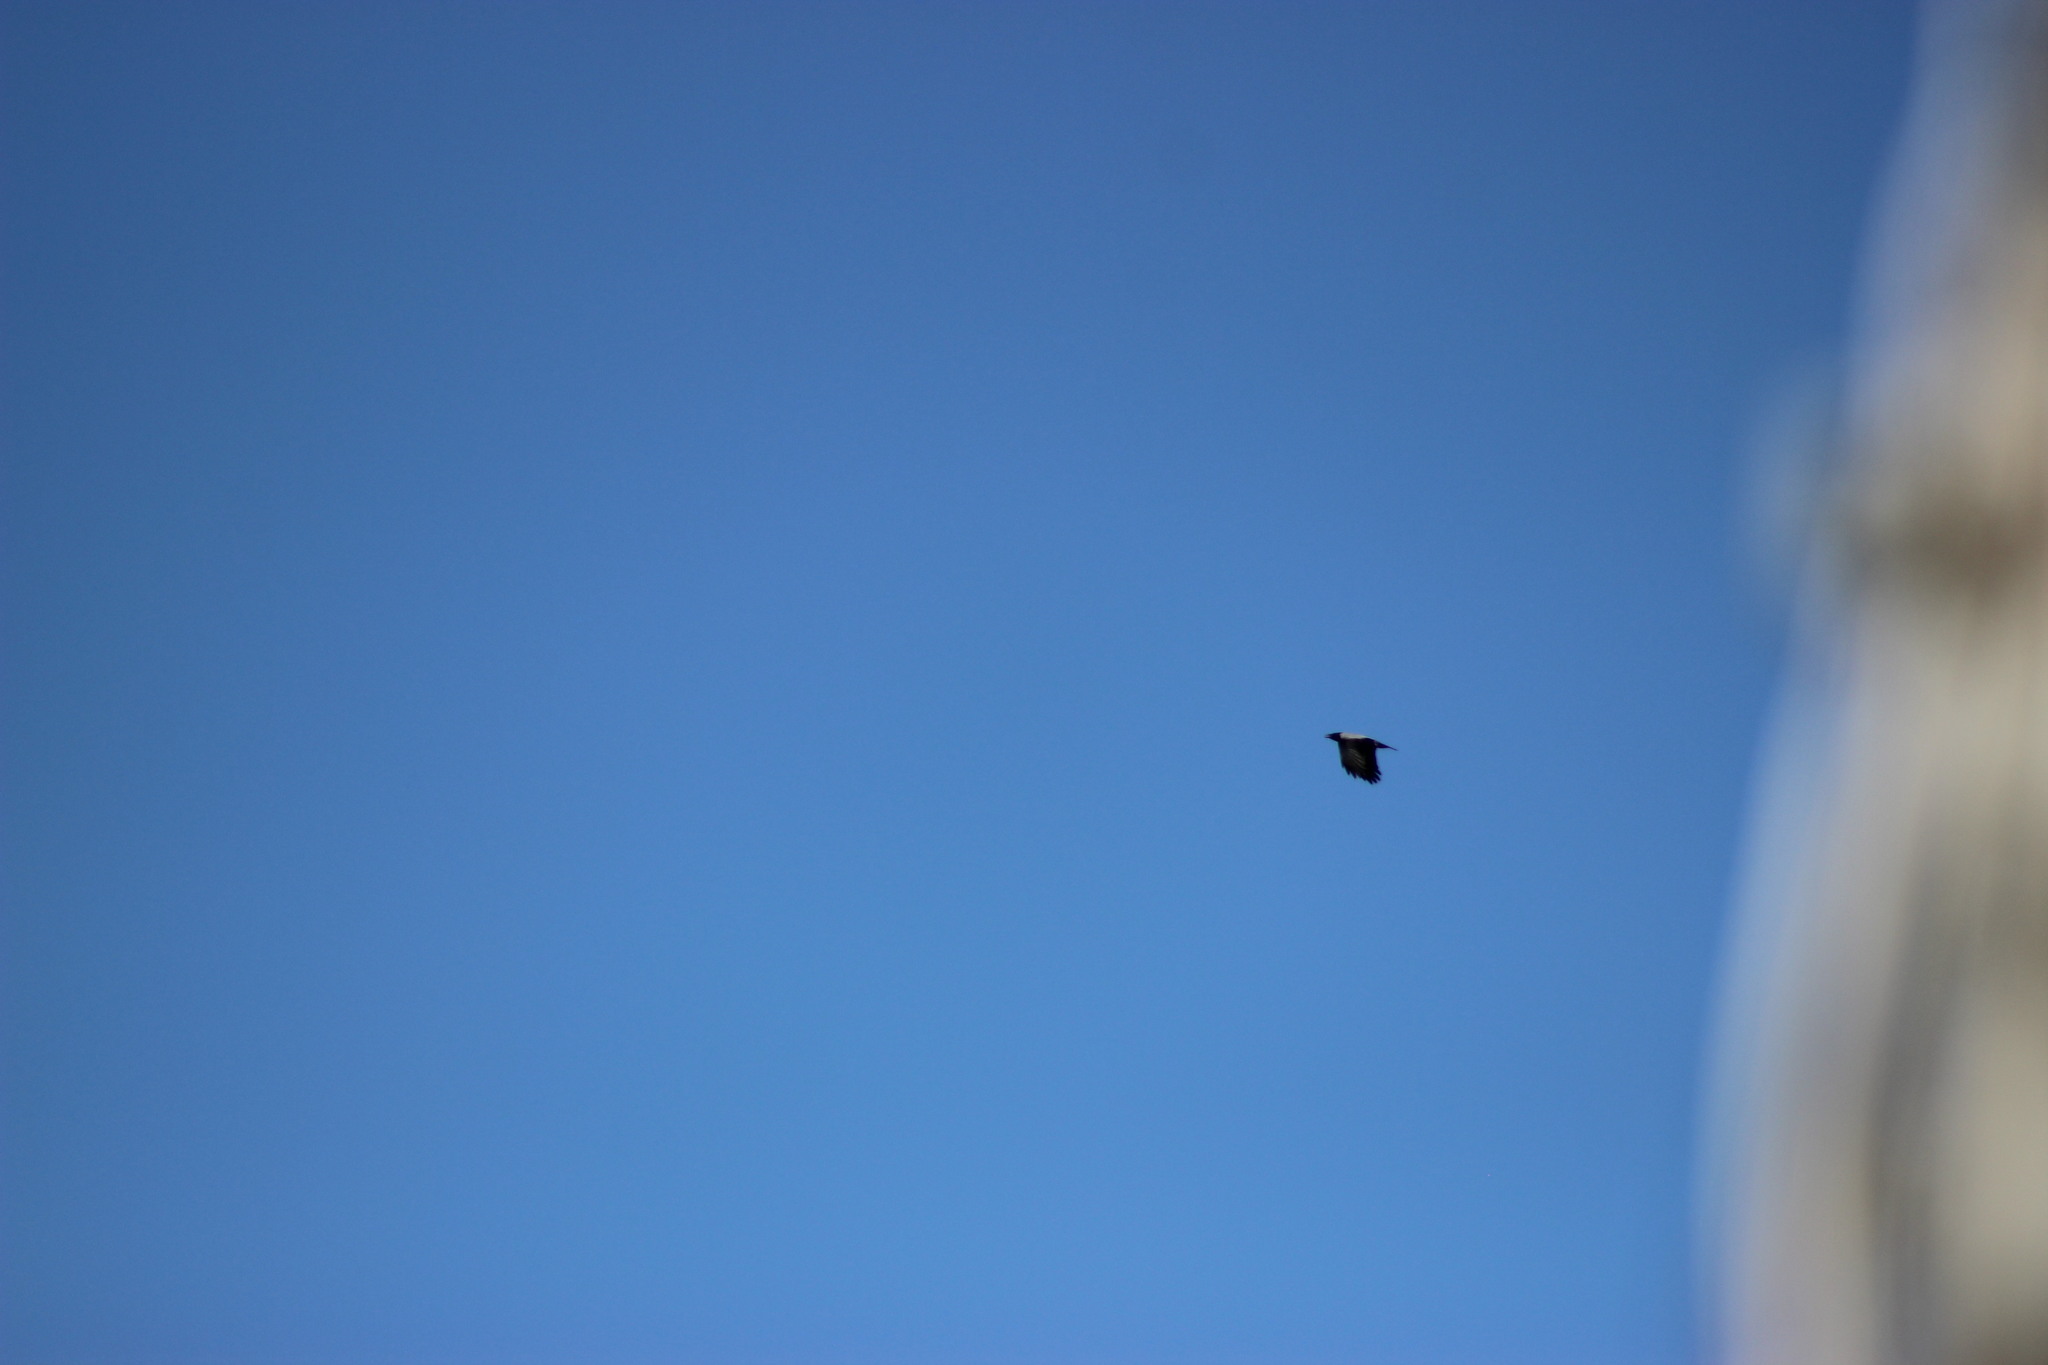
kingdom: Animalia
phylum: Chordata
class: Aves
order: Passeriformes
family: Corvidae
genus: Corvus
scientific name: Corvus cornix
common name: Hooded crow
